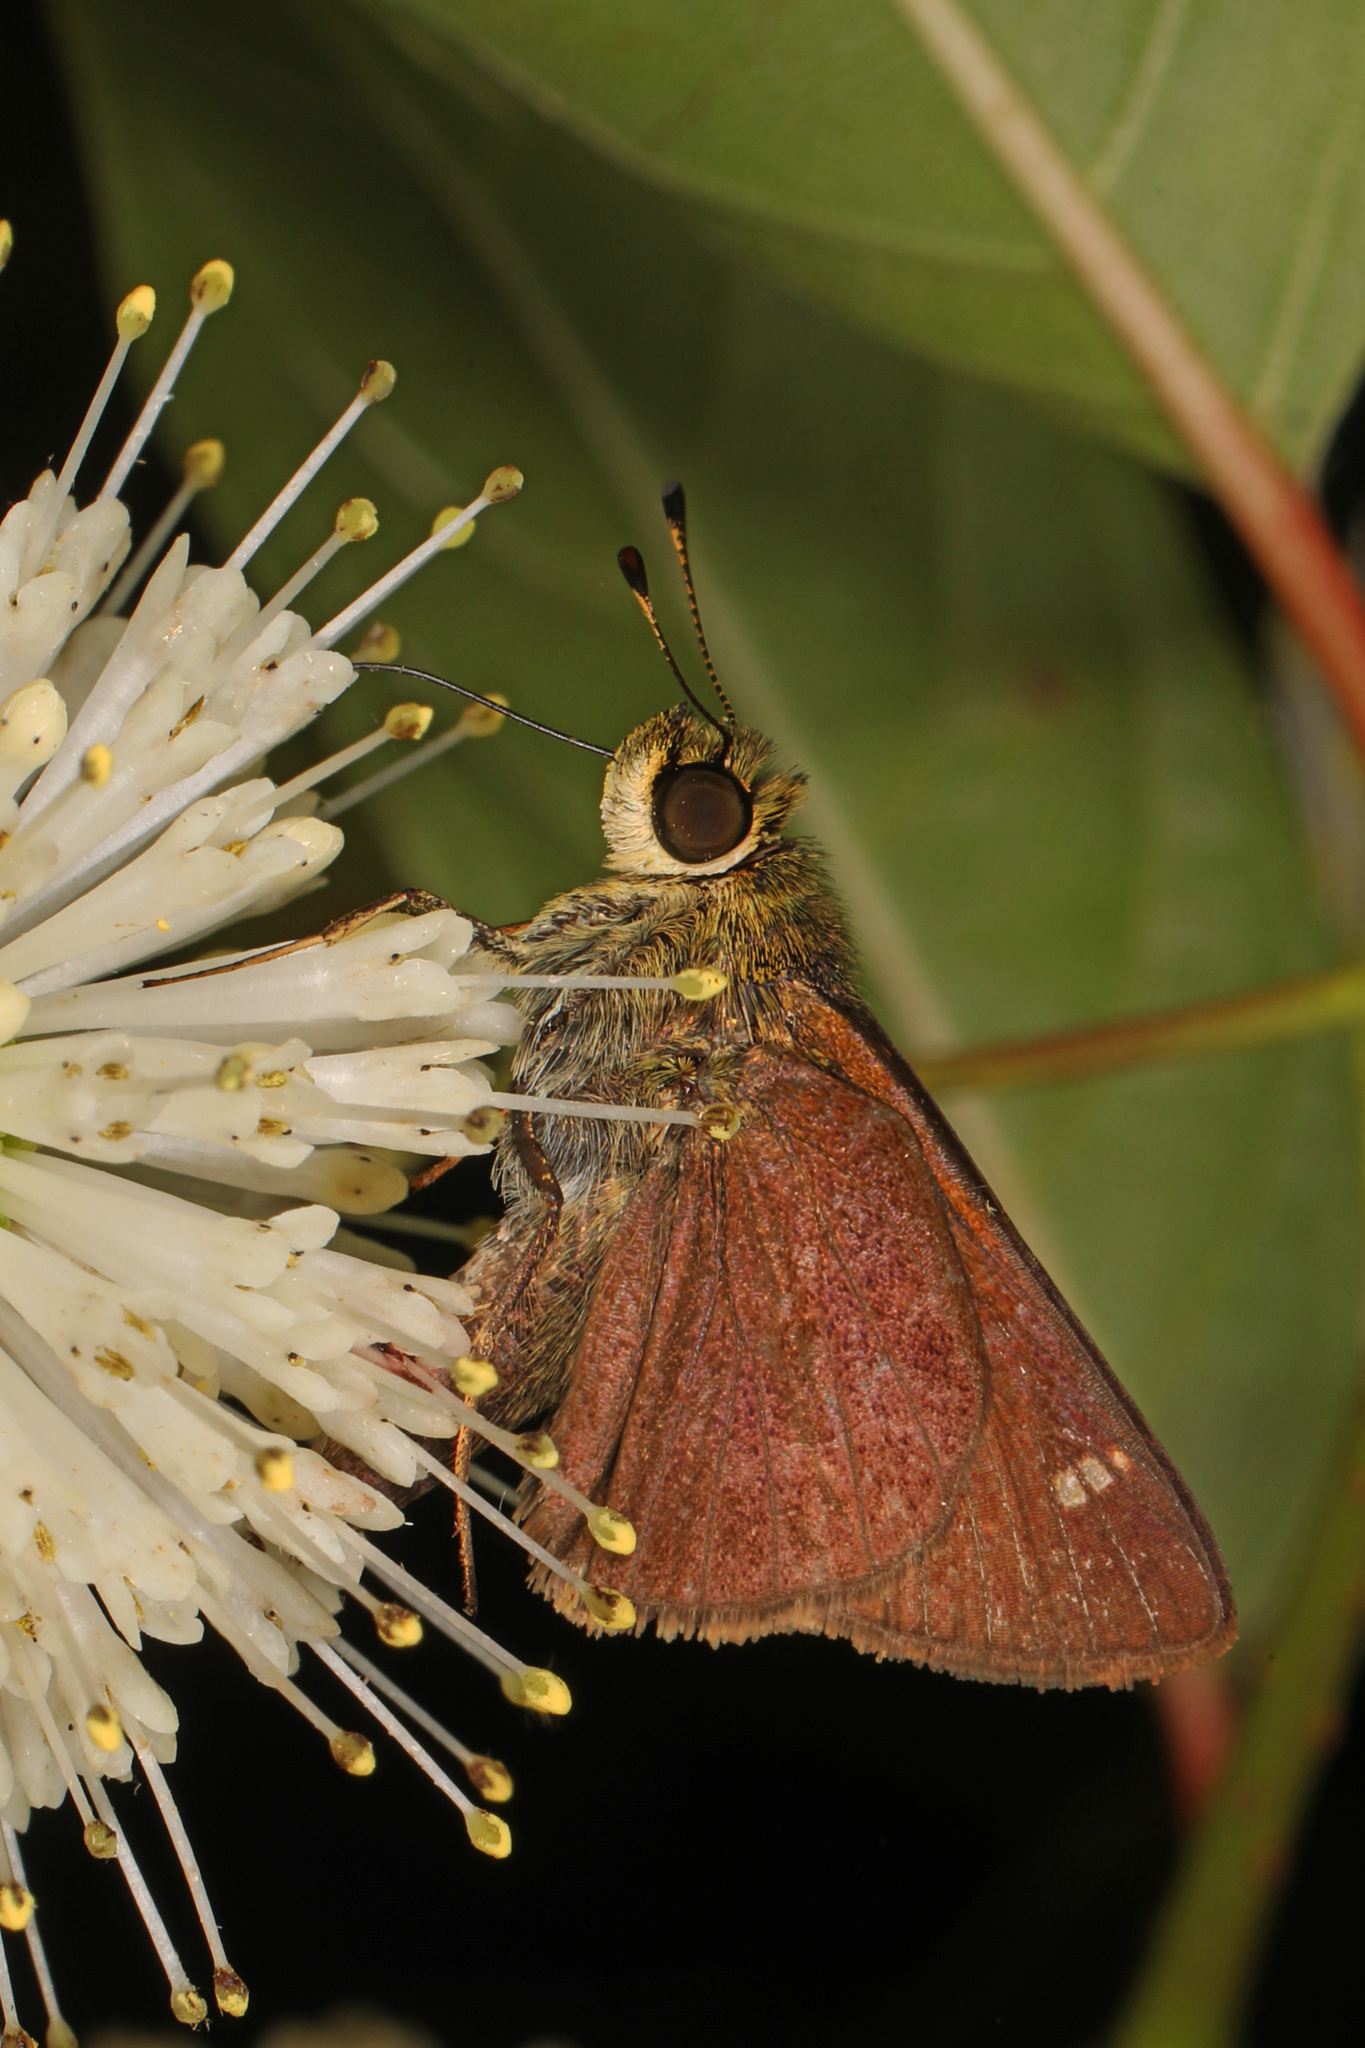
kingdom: Animalia
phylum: Arthropoda
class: Insecta
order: Lepidoptera
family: Hesperiidae
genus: Vernia
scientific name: Vernia verna
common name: Little glassywing
